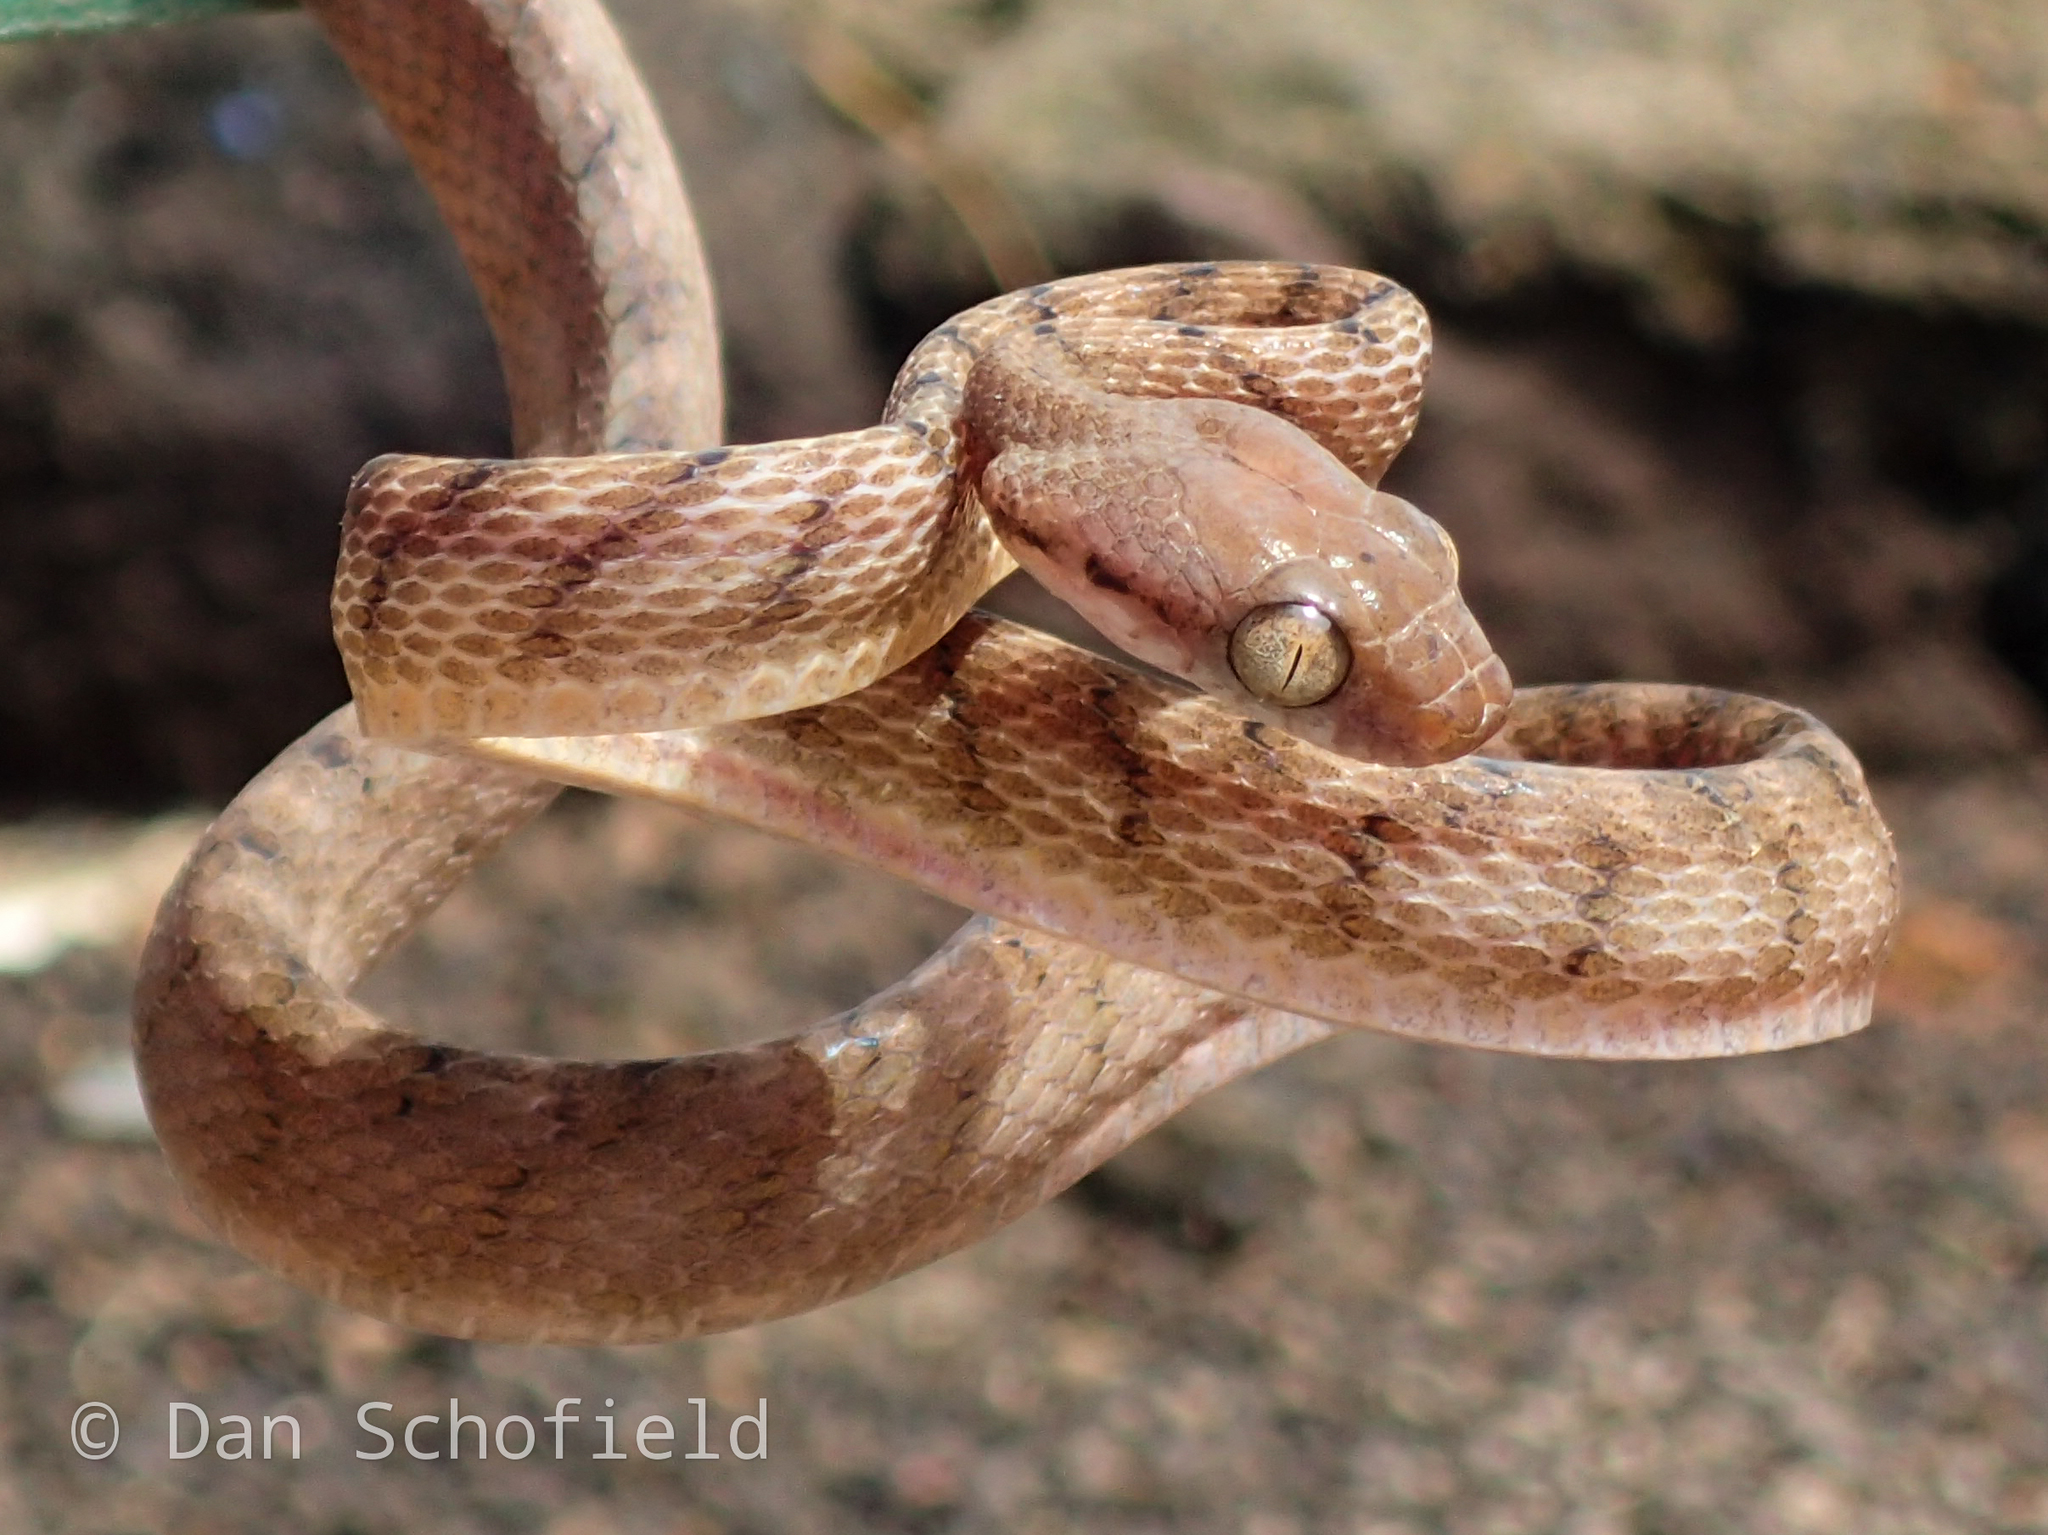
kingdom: Animalia
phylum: Chordata
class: Squamata
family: Colubridae
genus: Boiga
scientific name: Boiga irregularis
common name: Brown tree snake
